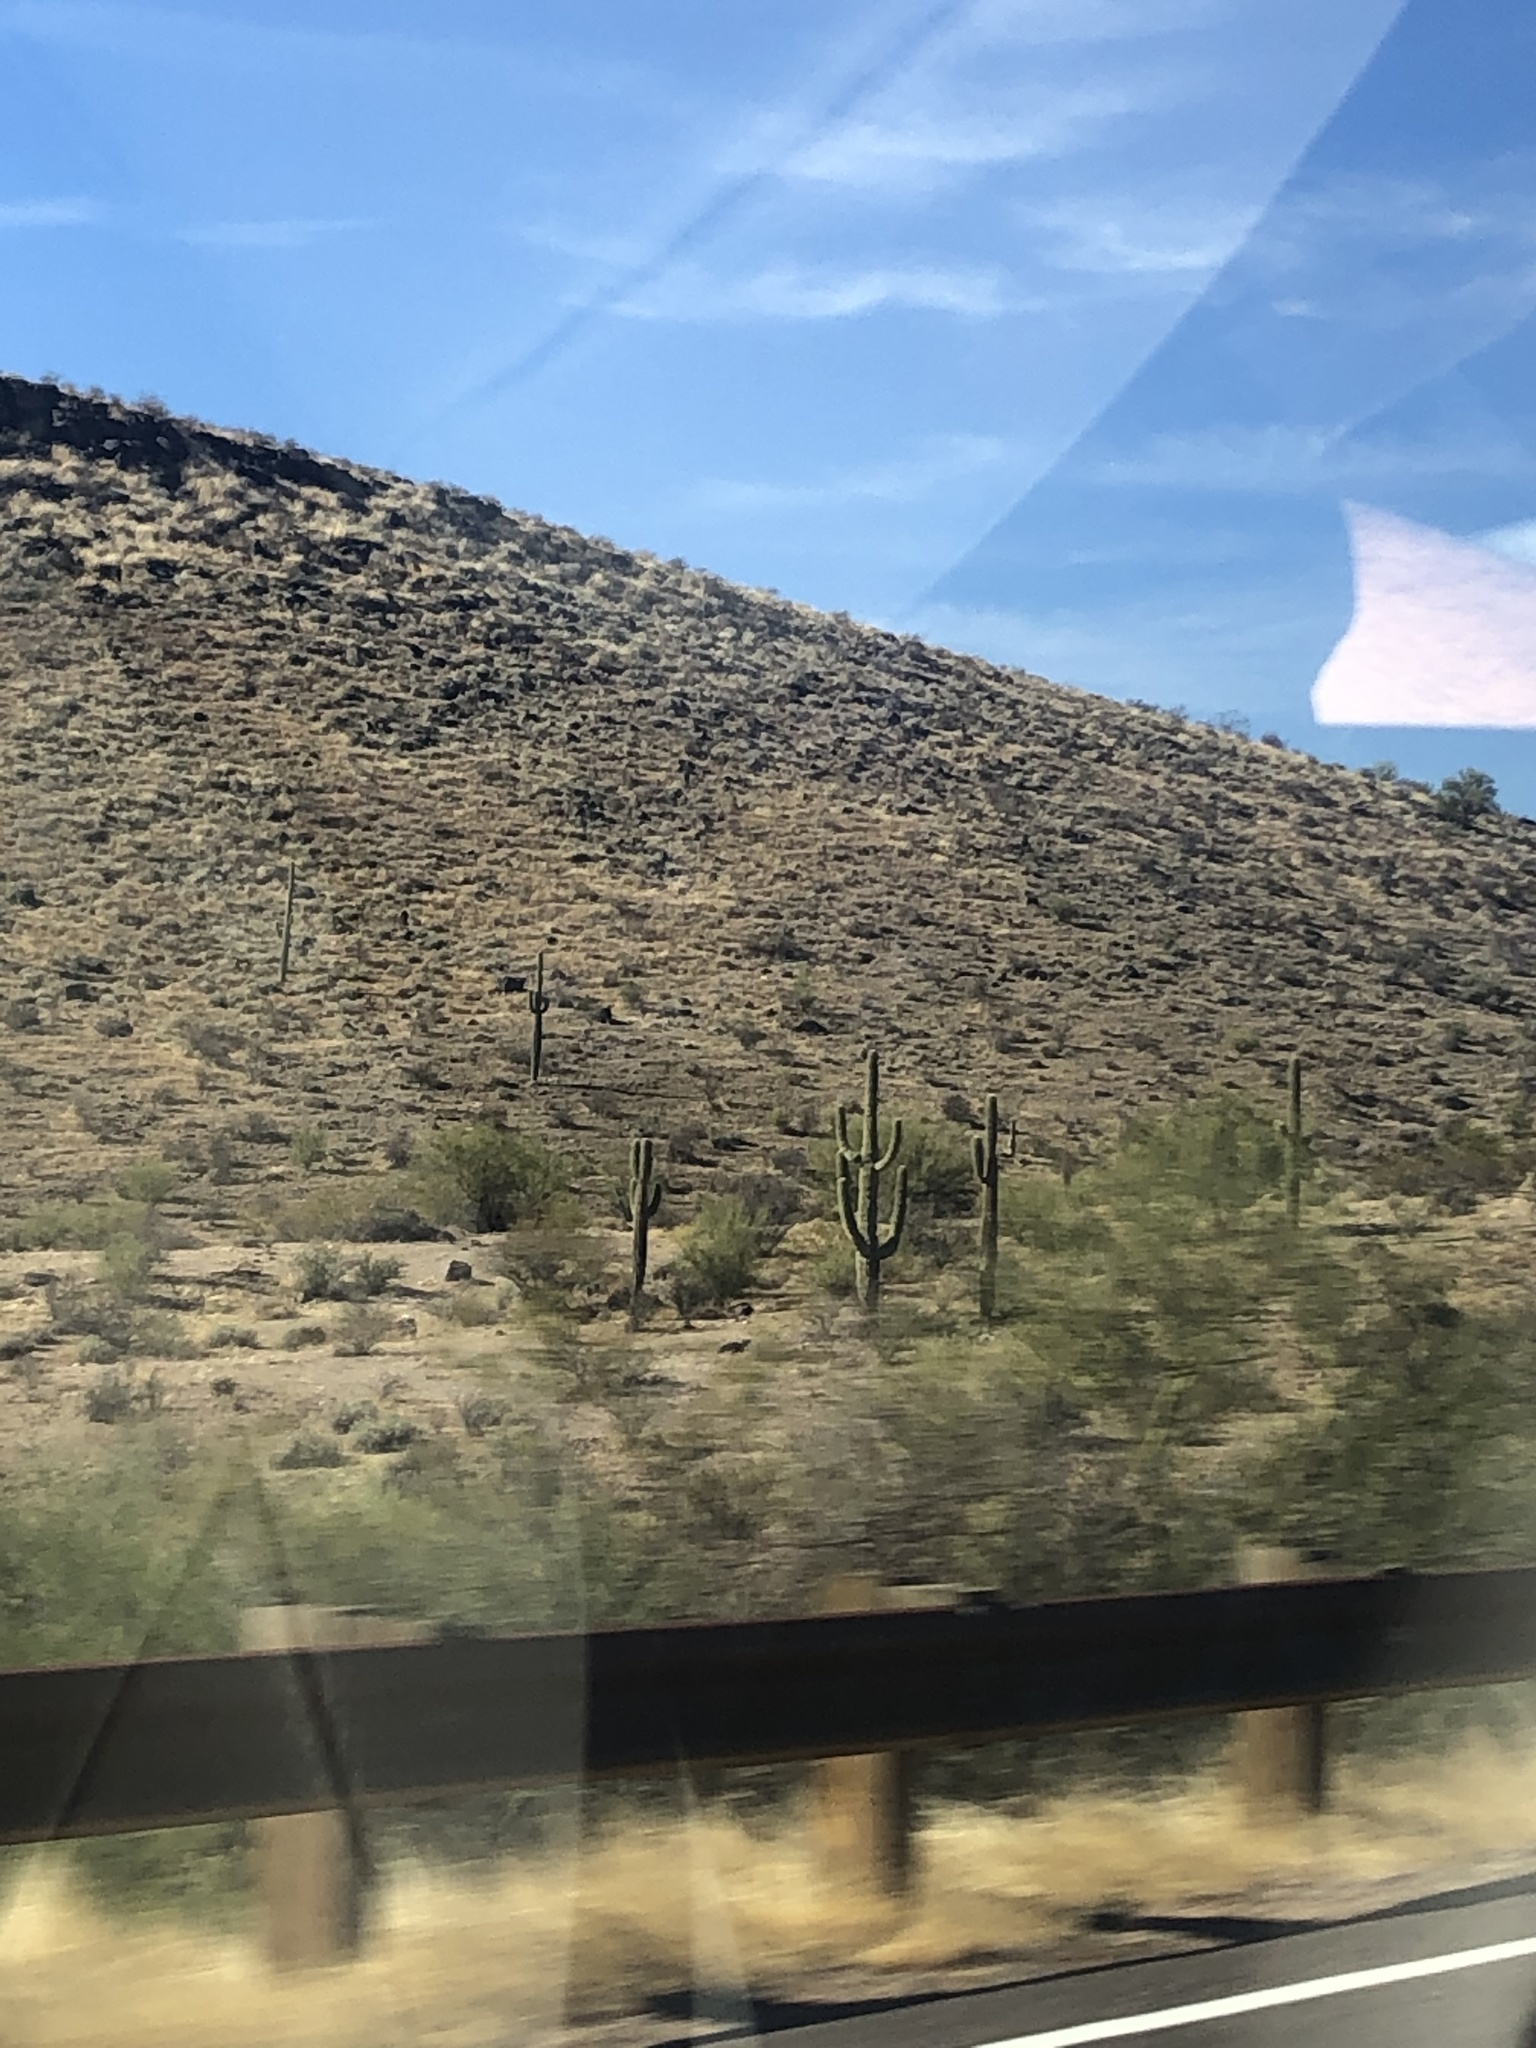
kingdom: Plantae
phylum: Tracheophyta
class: Magnoliopsida
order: Caryophyllales
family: Cactaceae
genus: Carnegiea
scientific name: Carnegiea gigantea
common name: Saguaro
